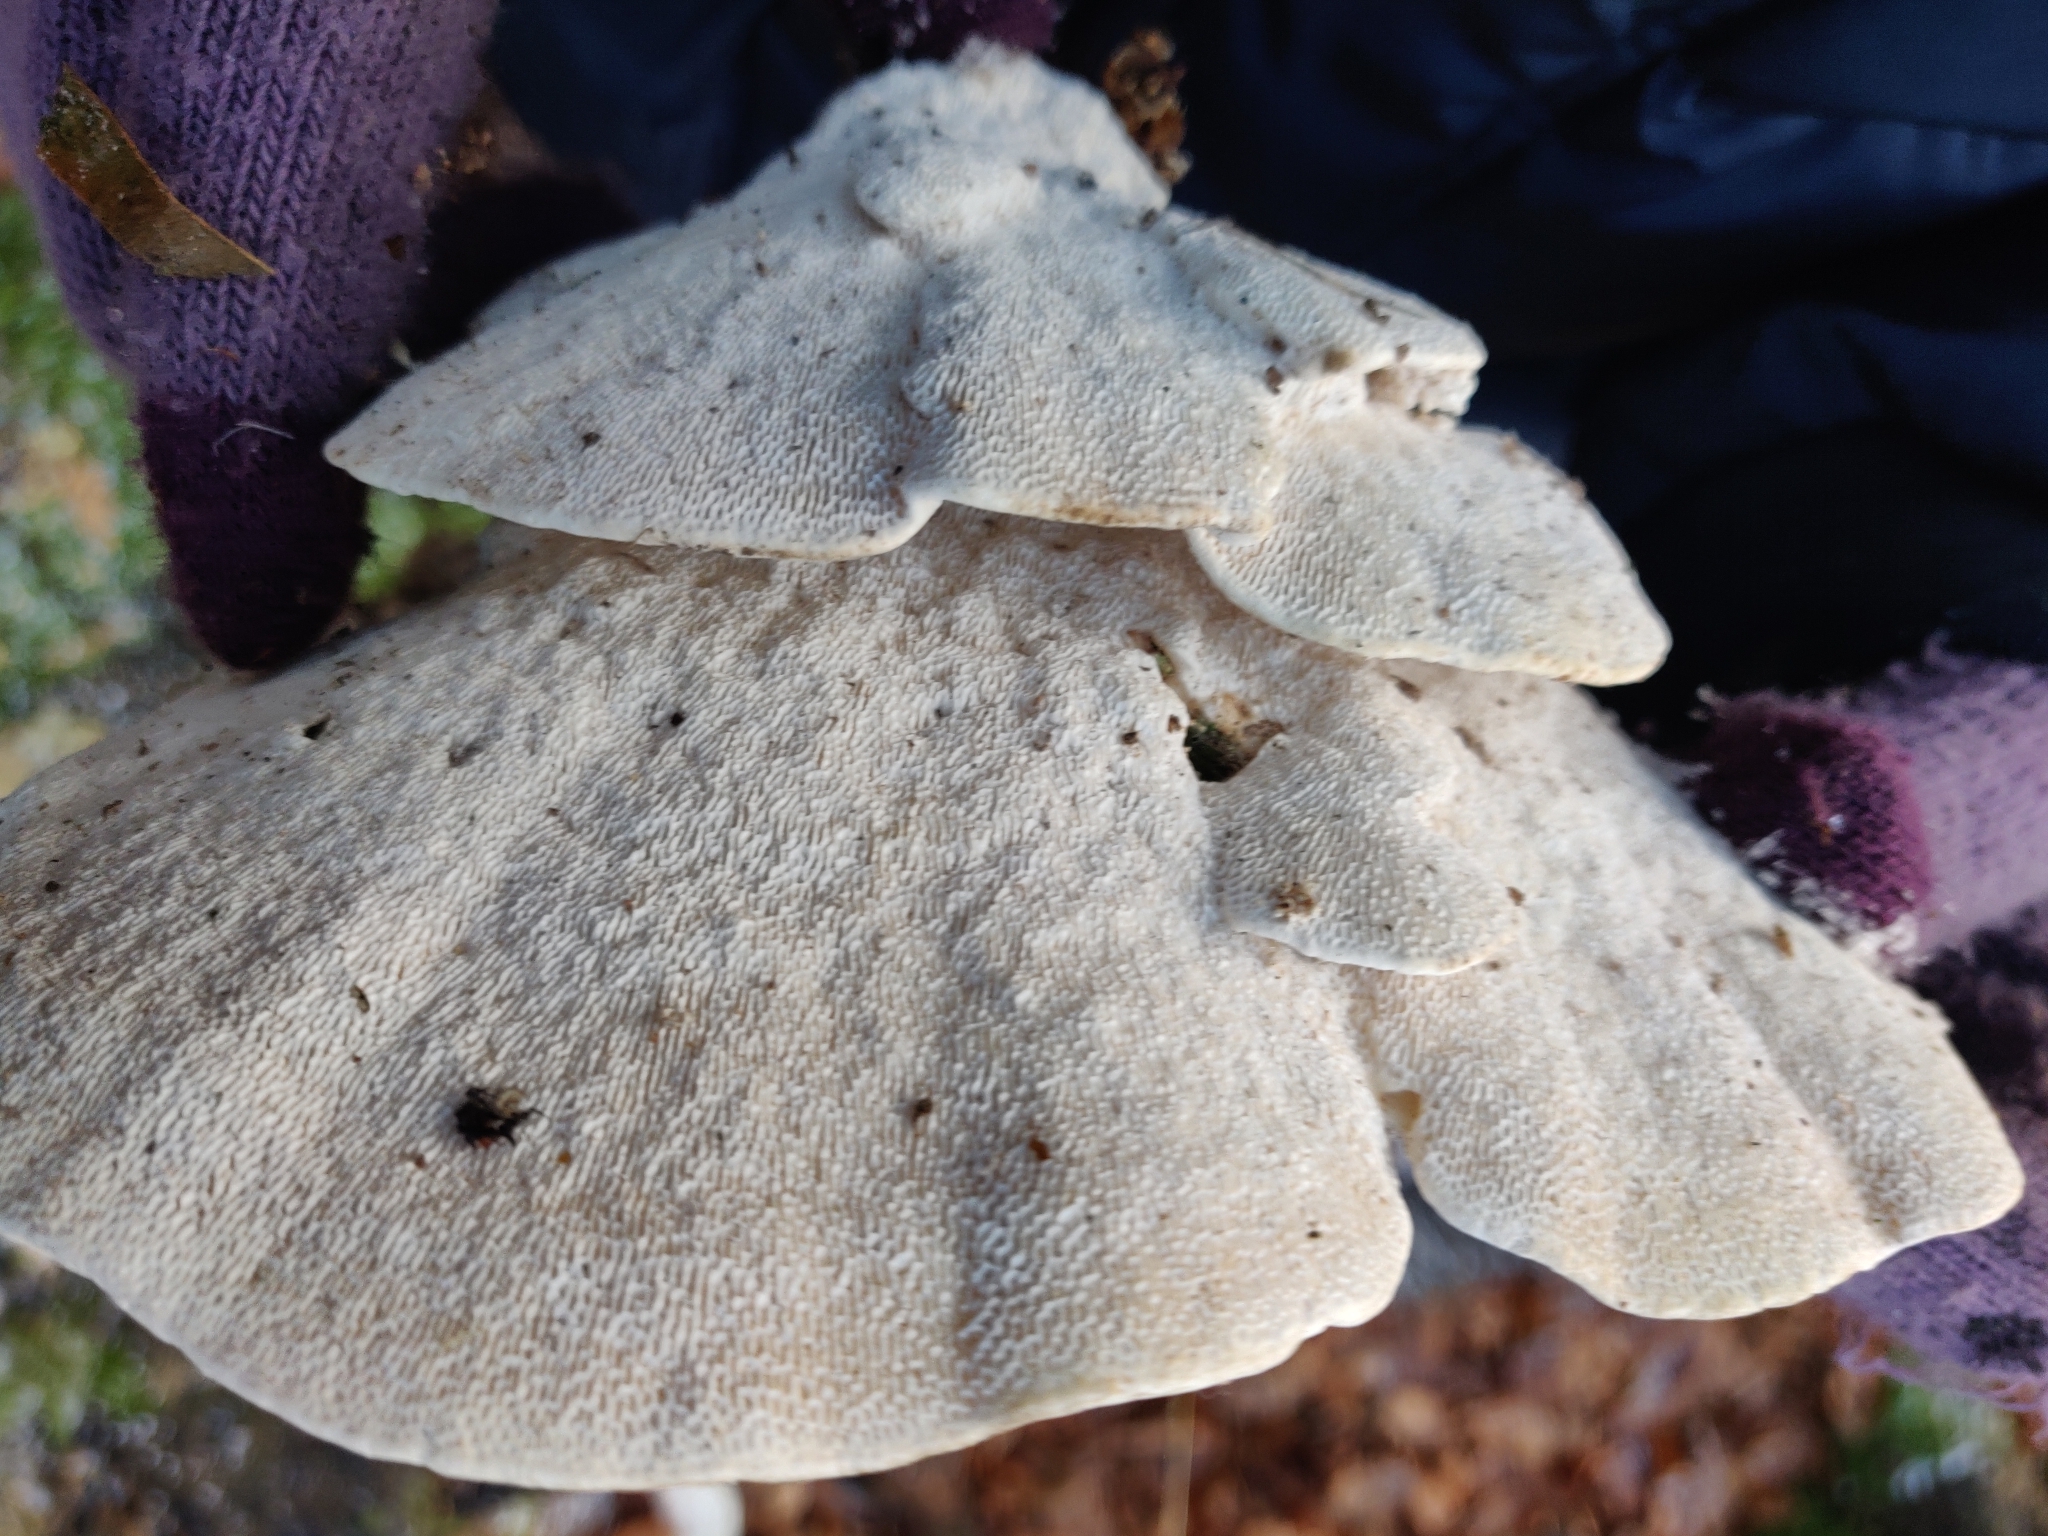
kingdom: Fungi
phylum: Basidiomycota
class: Agaricomycetes
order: Polyporales
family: Polyporaceae
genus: Trametes
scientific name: Trametes gibbosa
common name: Lumpy bracket
